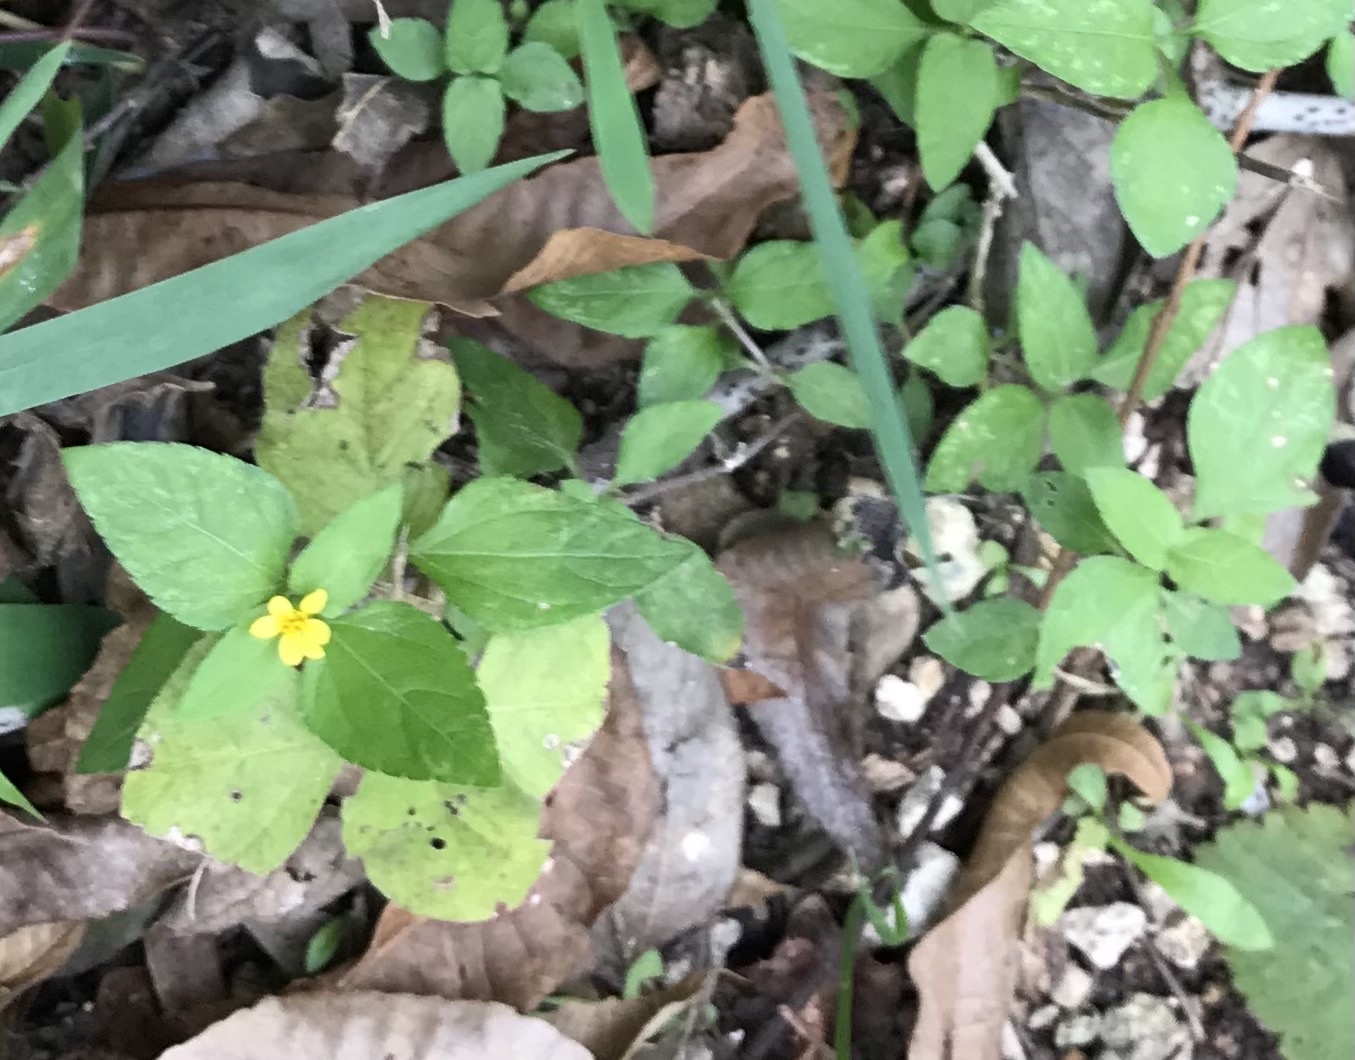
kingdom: Plantae
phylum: Tracheophyta
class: Magnoliopsida
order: Asterales
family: Asteraceae
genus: Calyptocarpus
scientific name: Calyptocarpus vialis
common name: Straggler daisy
